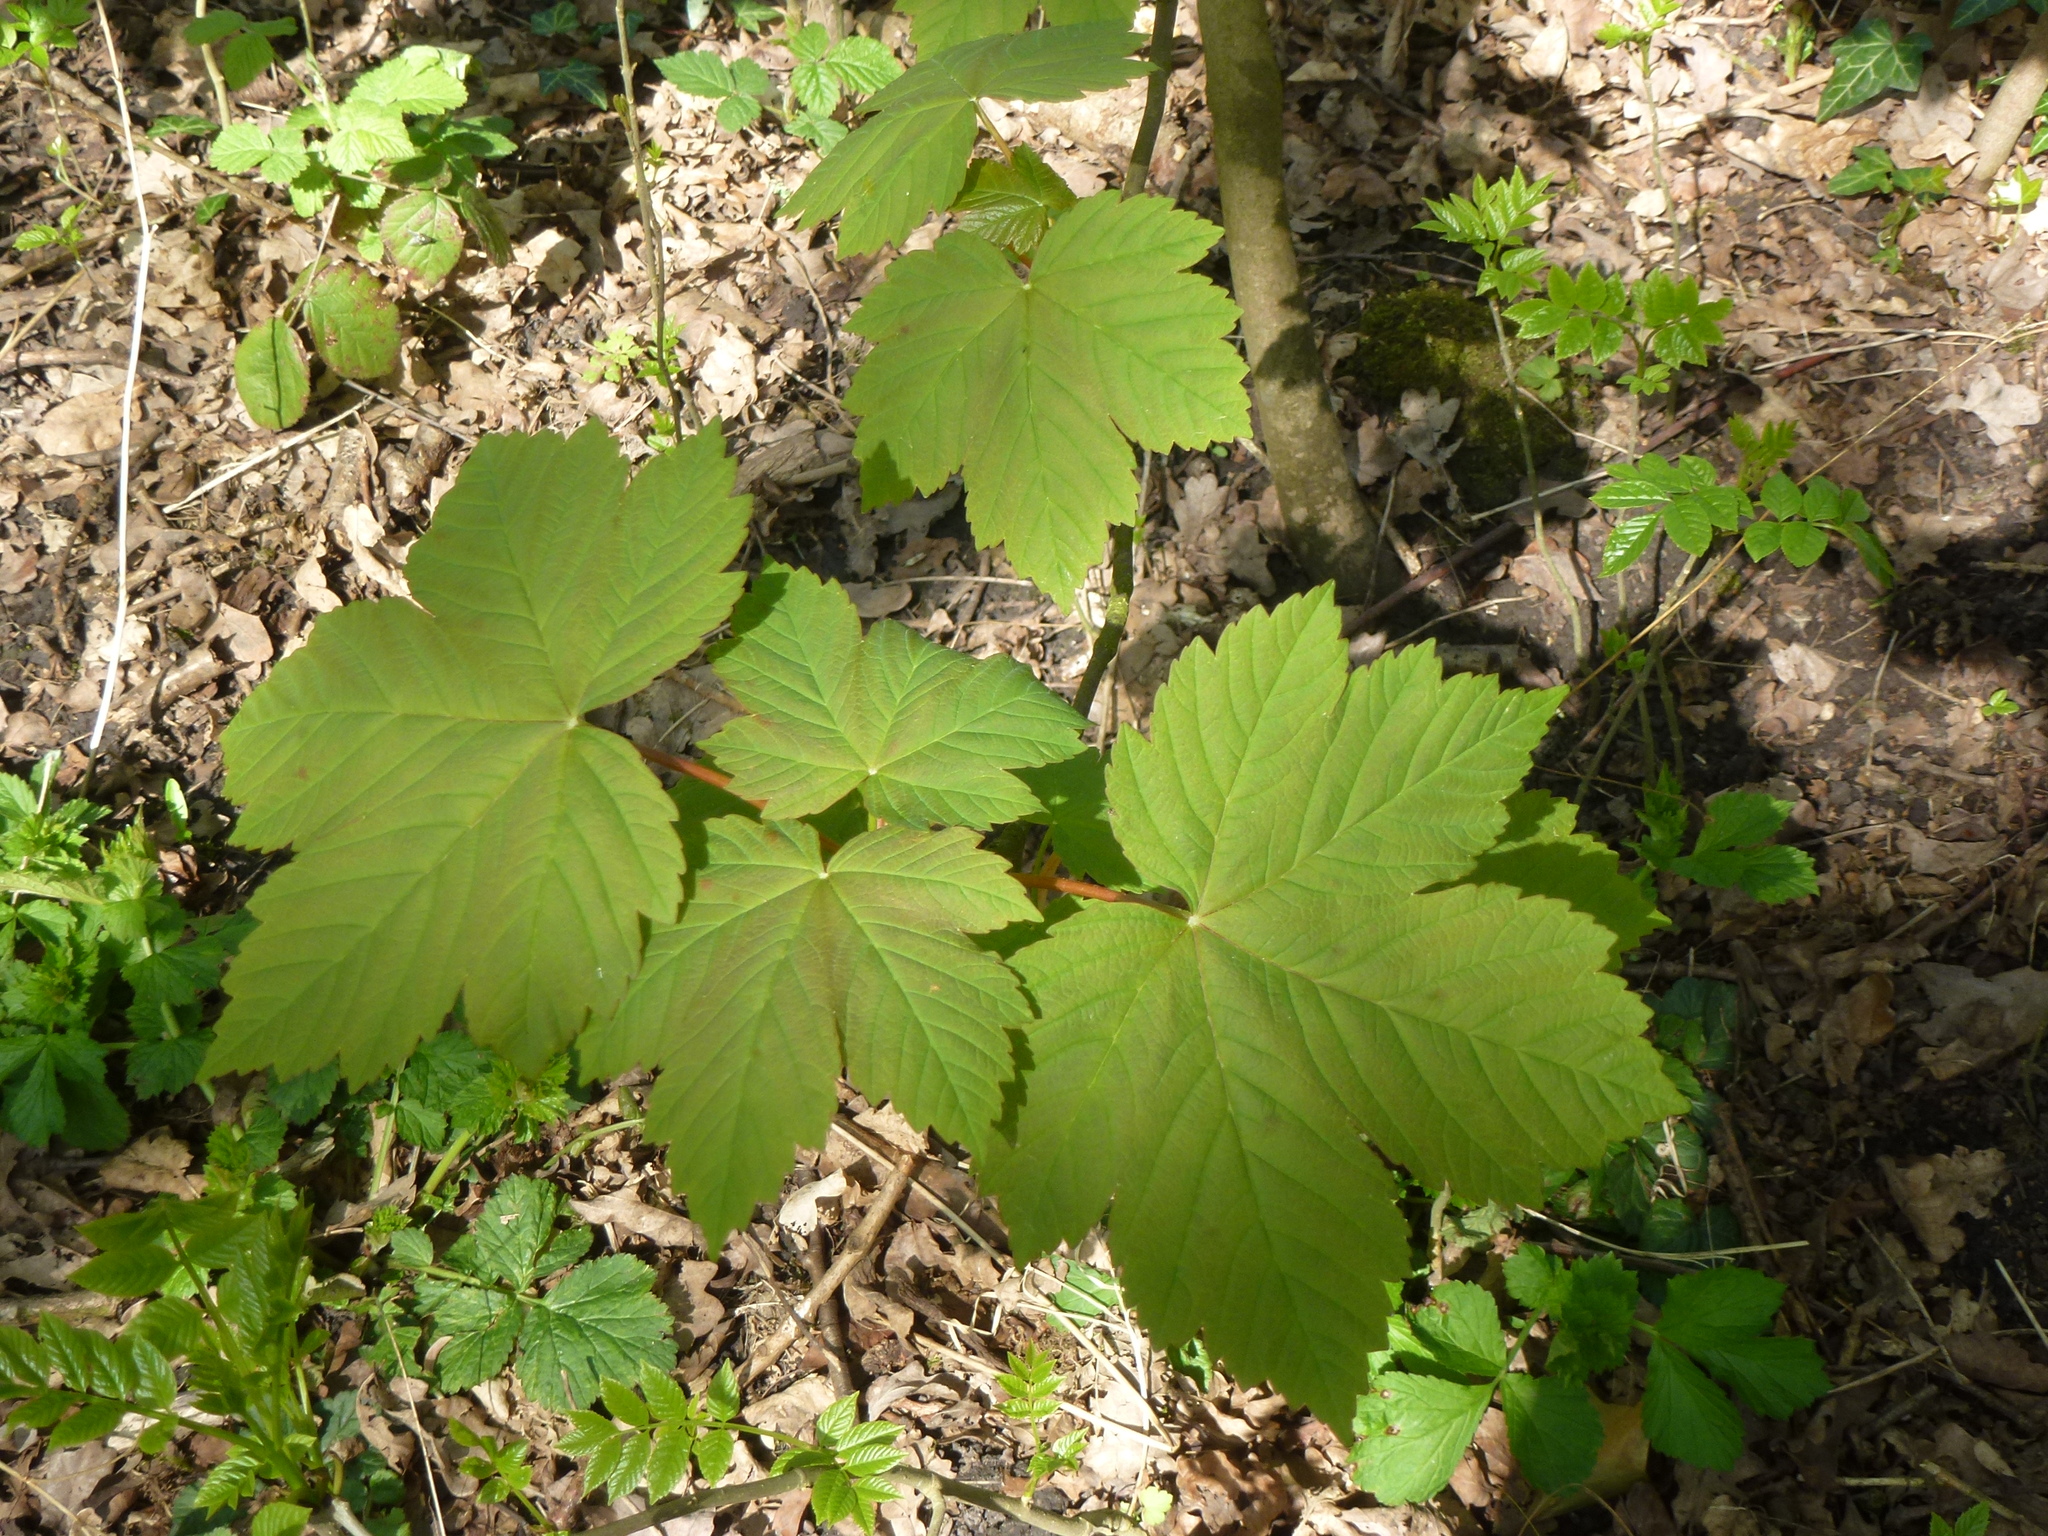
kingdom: Plantae
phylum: Tracheophyta
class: Magnoliopsida
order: Sapindales
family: Sapindaceae
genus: Acer
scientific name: Acer pseudoplatanus
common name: Sycamore
